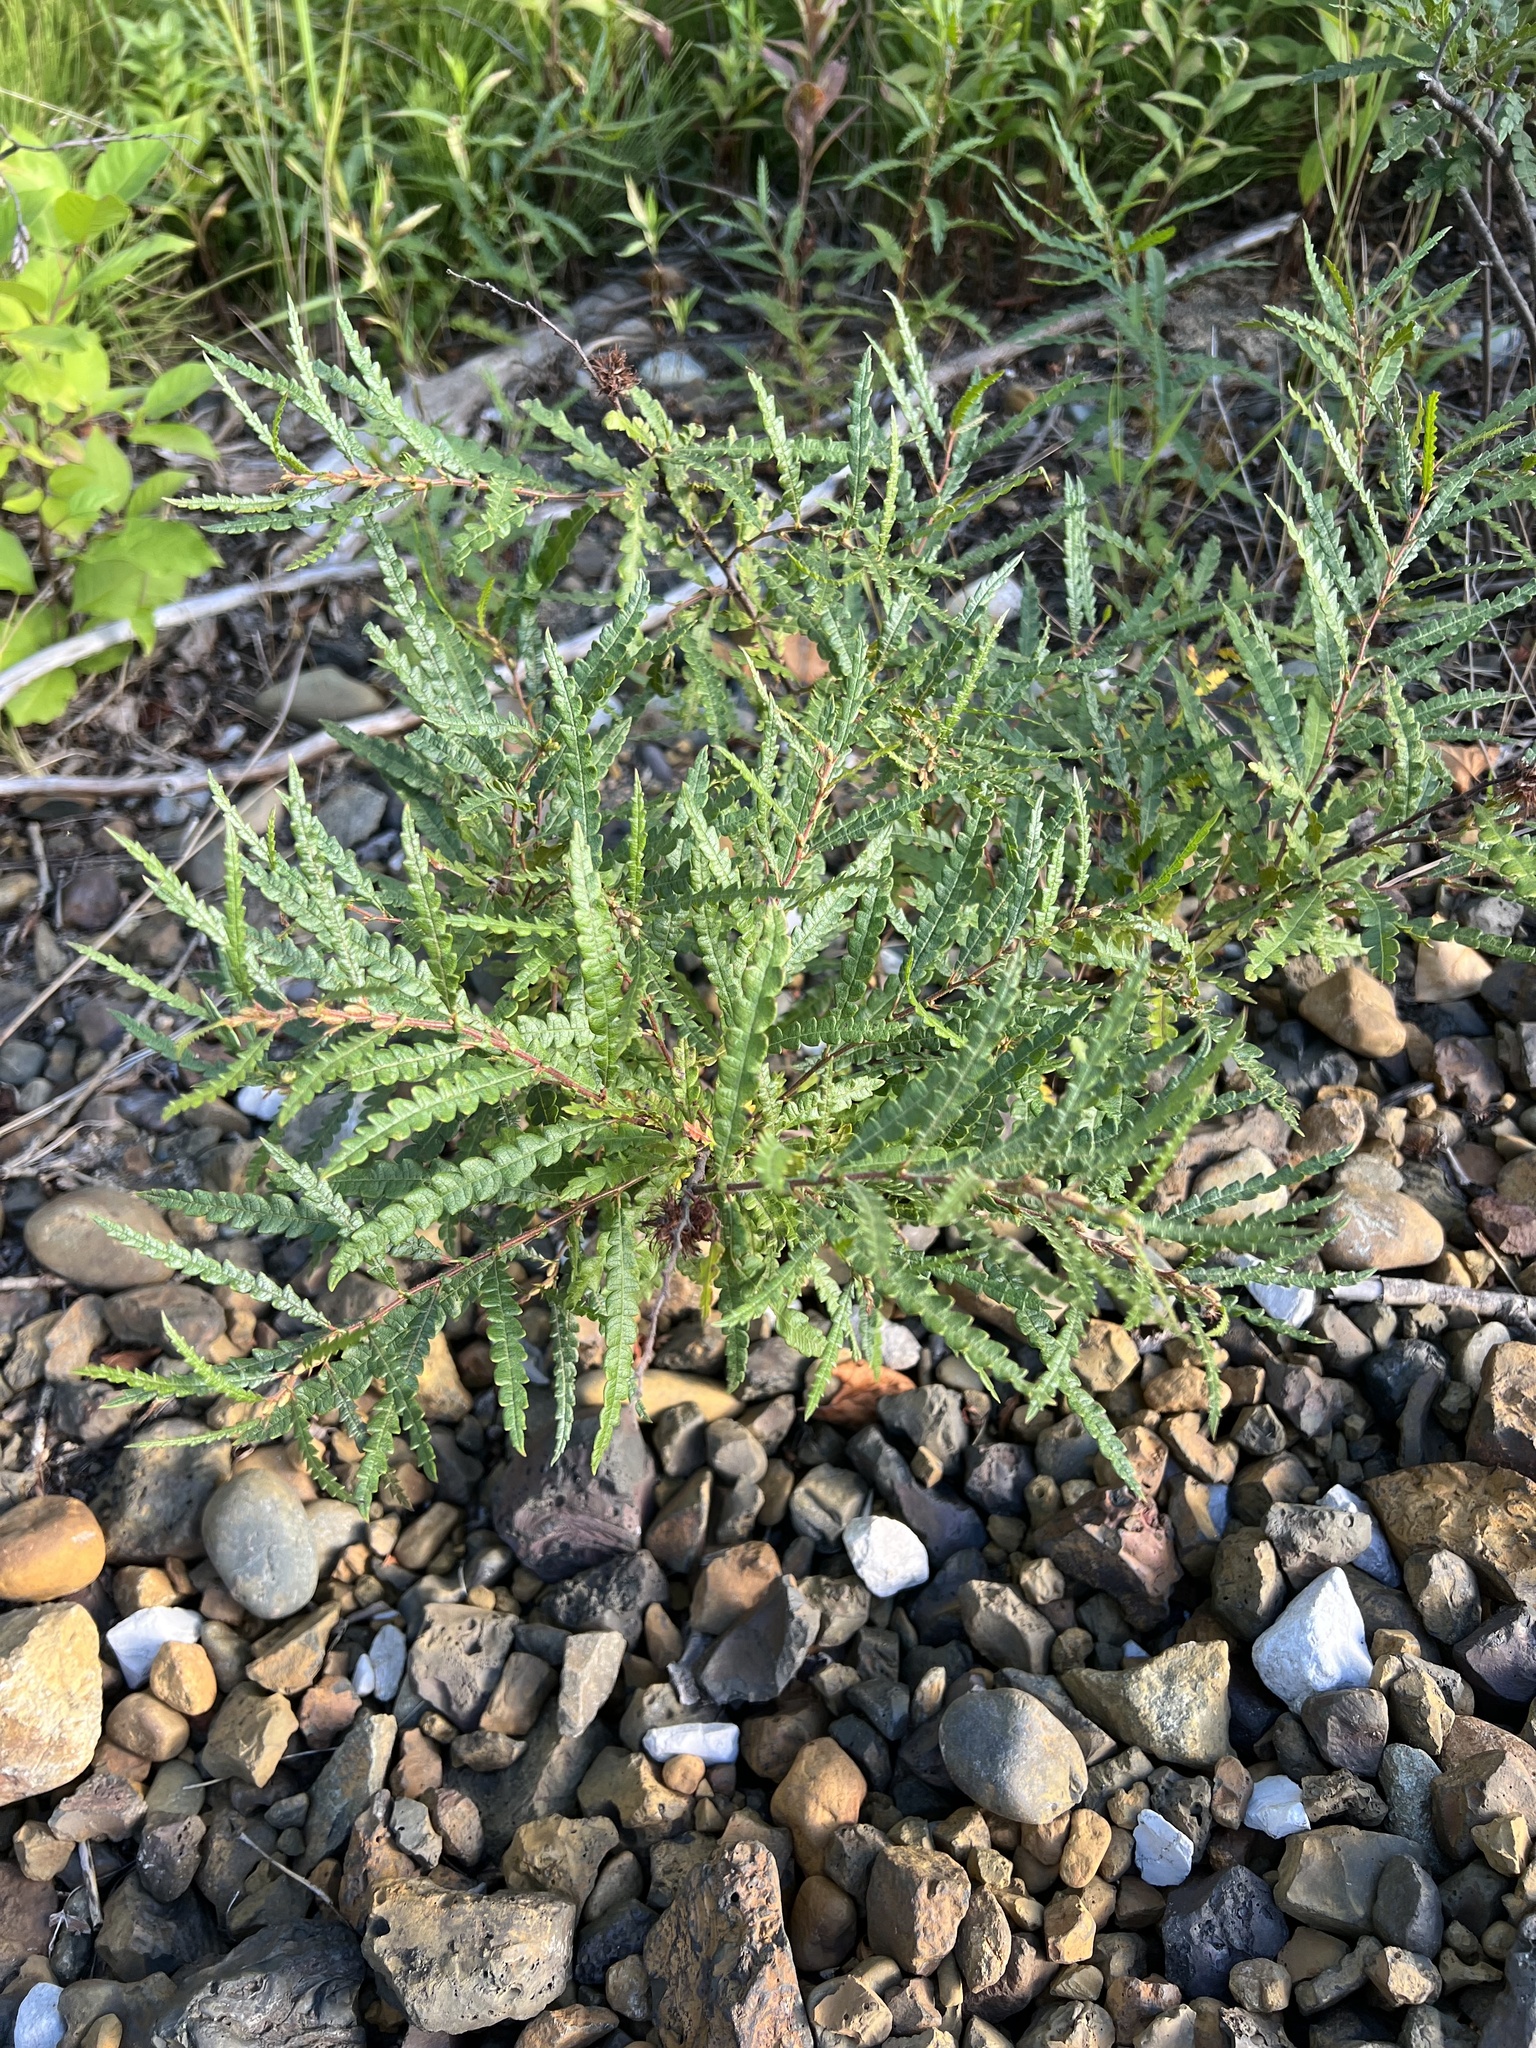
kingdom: Plantae
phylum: Tracheophyta
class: Magnoliopsida
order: Fagales
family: Myricaceae
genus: Comptonia
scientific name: Comptonia peregrina
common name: Sweet-fern
